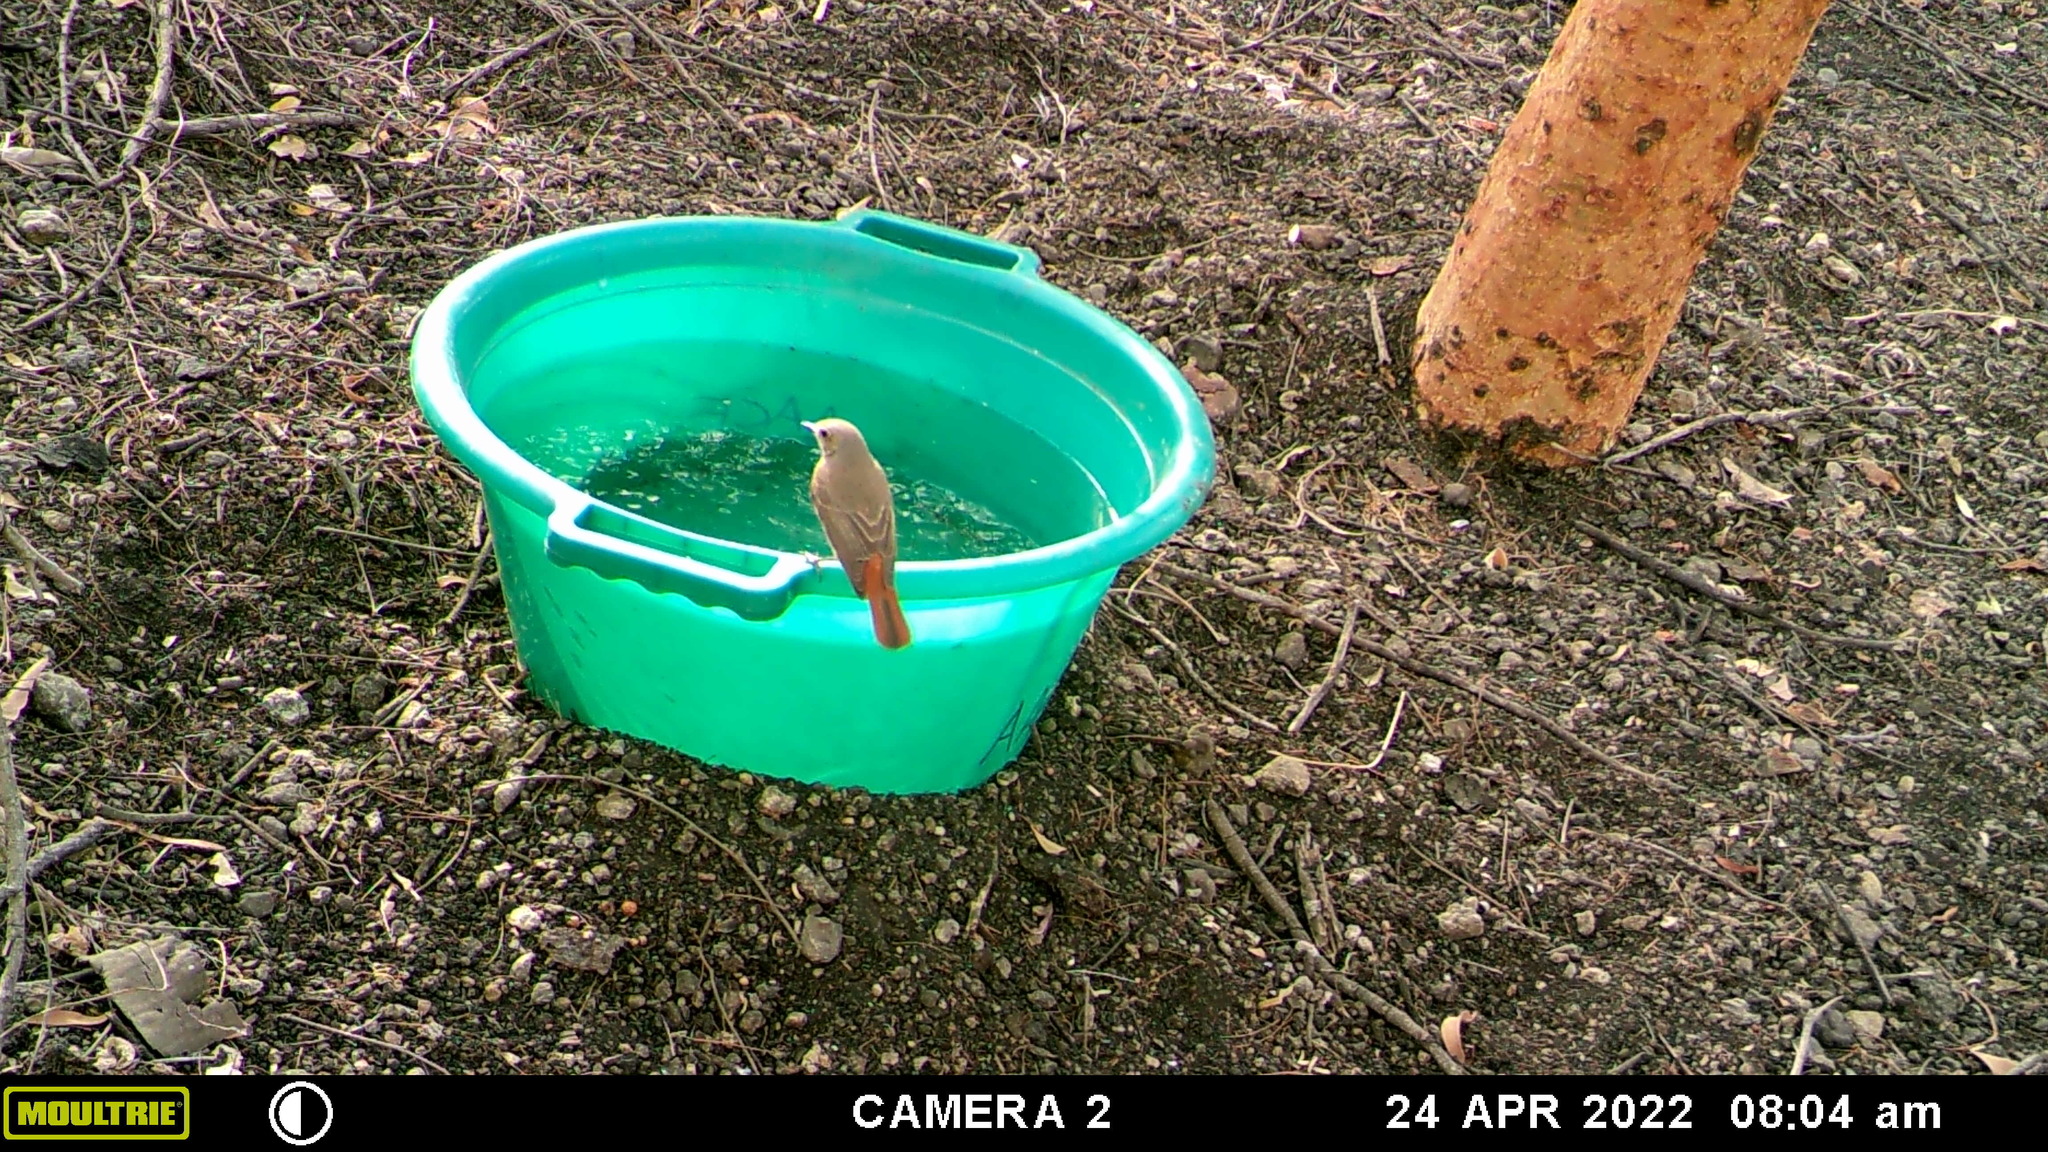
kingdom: Animalia
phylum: Chordata
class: Aves
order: Passeriformes
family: Muscicapidae
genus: Phoenicurus
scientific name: Phoenicurus phoenicurus
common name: Common redstart
